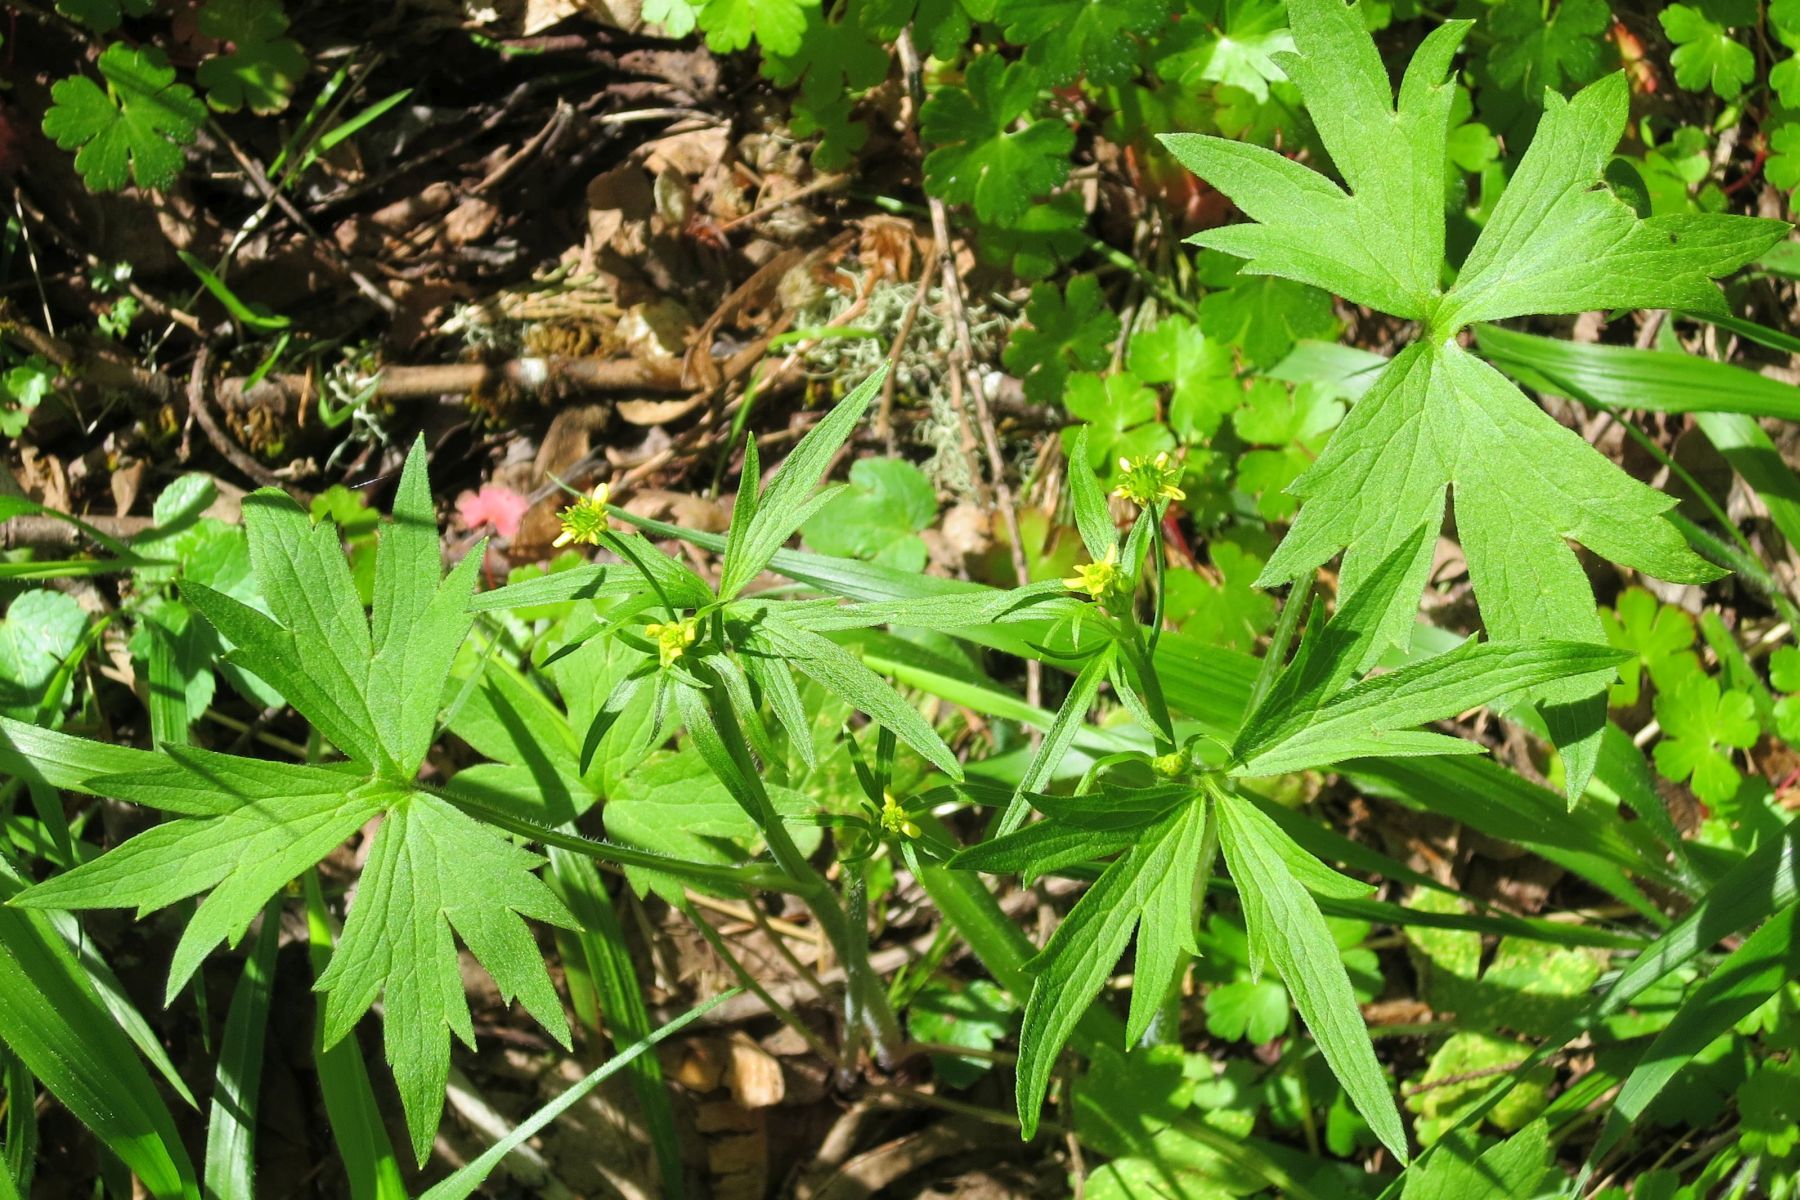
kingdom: Plantae
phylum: Tracheophyta
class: Magnoliopsida
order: Ranunculales
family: Ranunculaceae
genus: Ranunculus
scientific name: Ranunculus uncinatus
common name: Little buttercup
